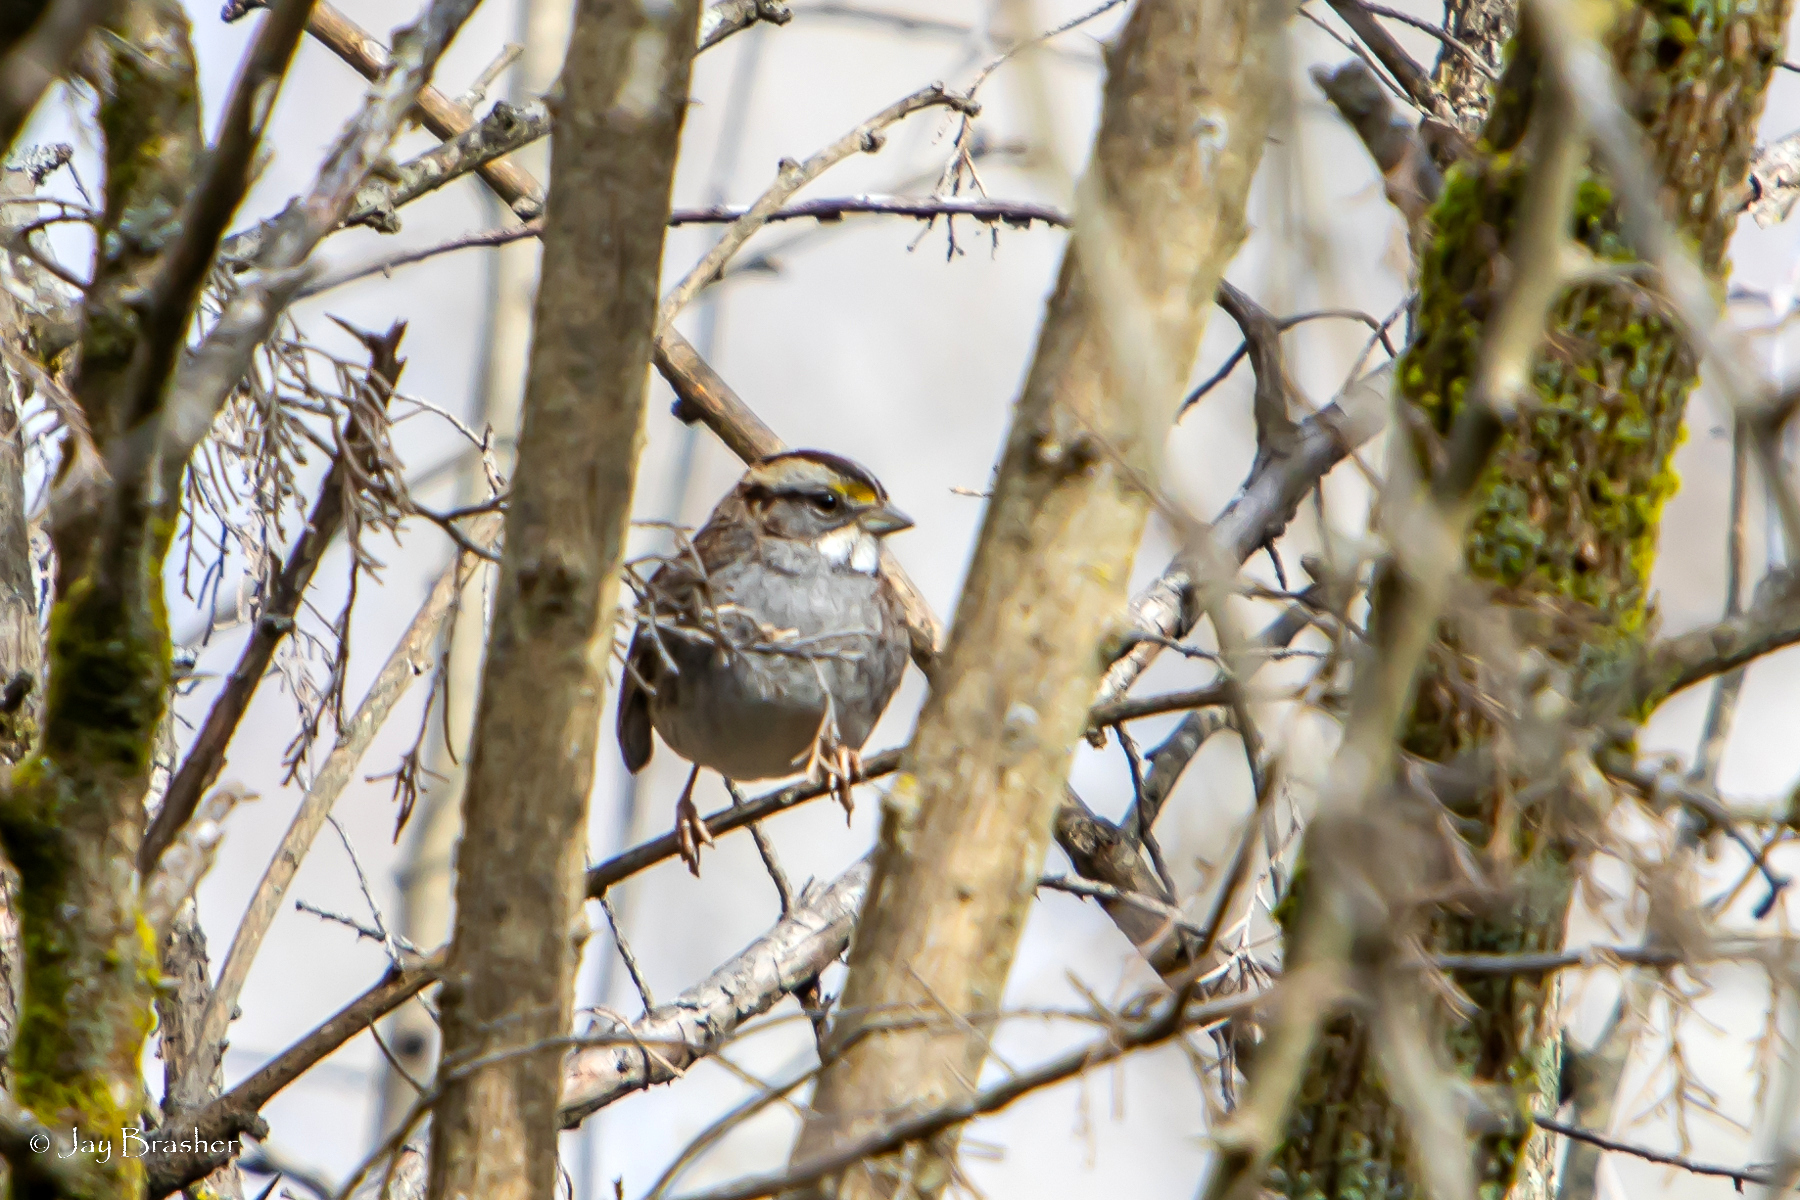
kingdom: Animalia
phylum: Chordata
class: Aves
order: Passeriformes
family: Passerellidae
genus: Zonotrichia
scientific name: Zonotrichia albicollis
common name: White-throated sparrow
